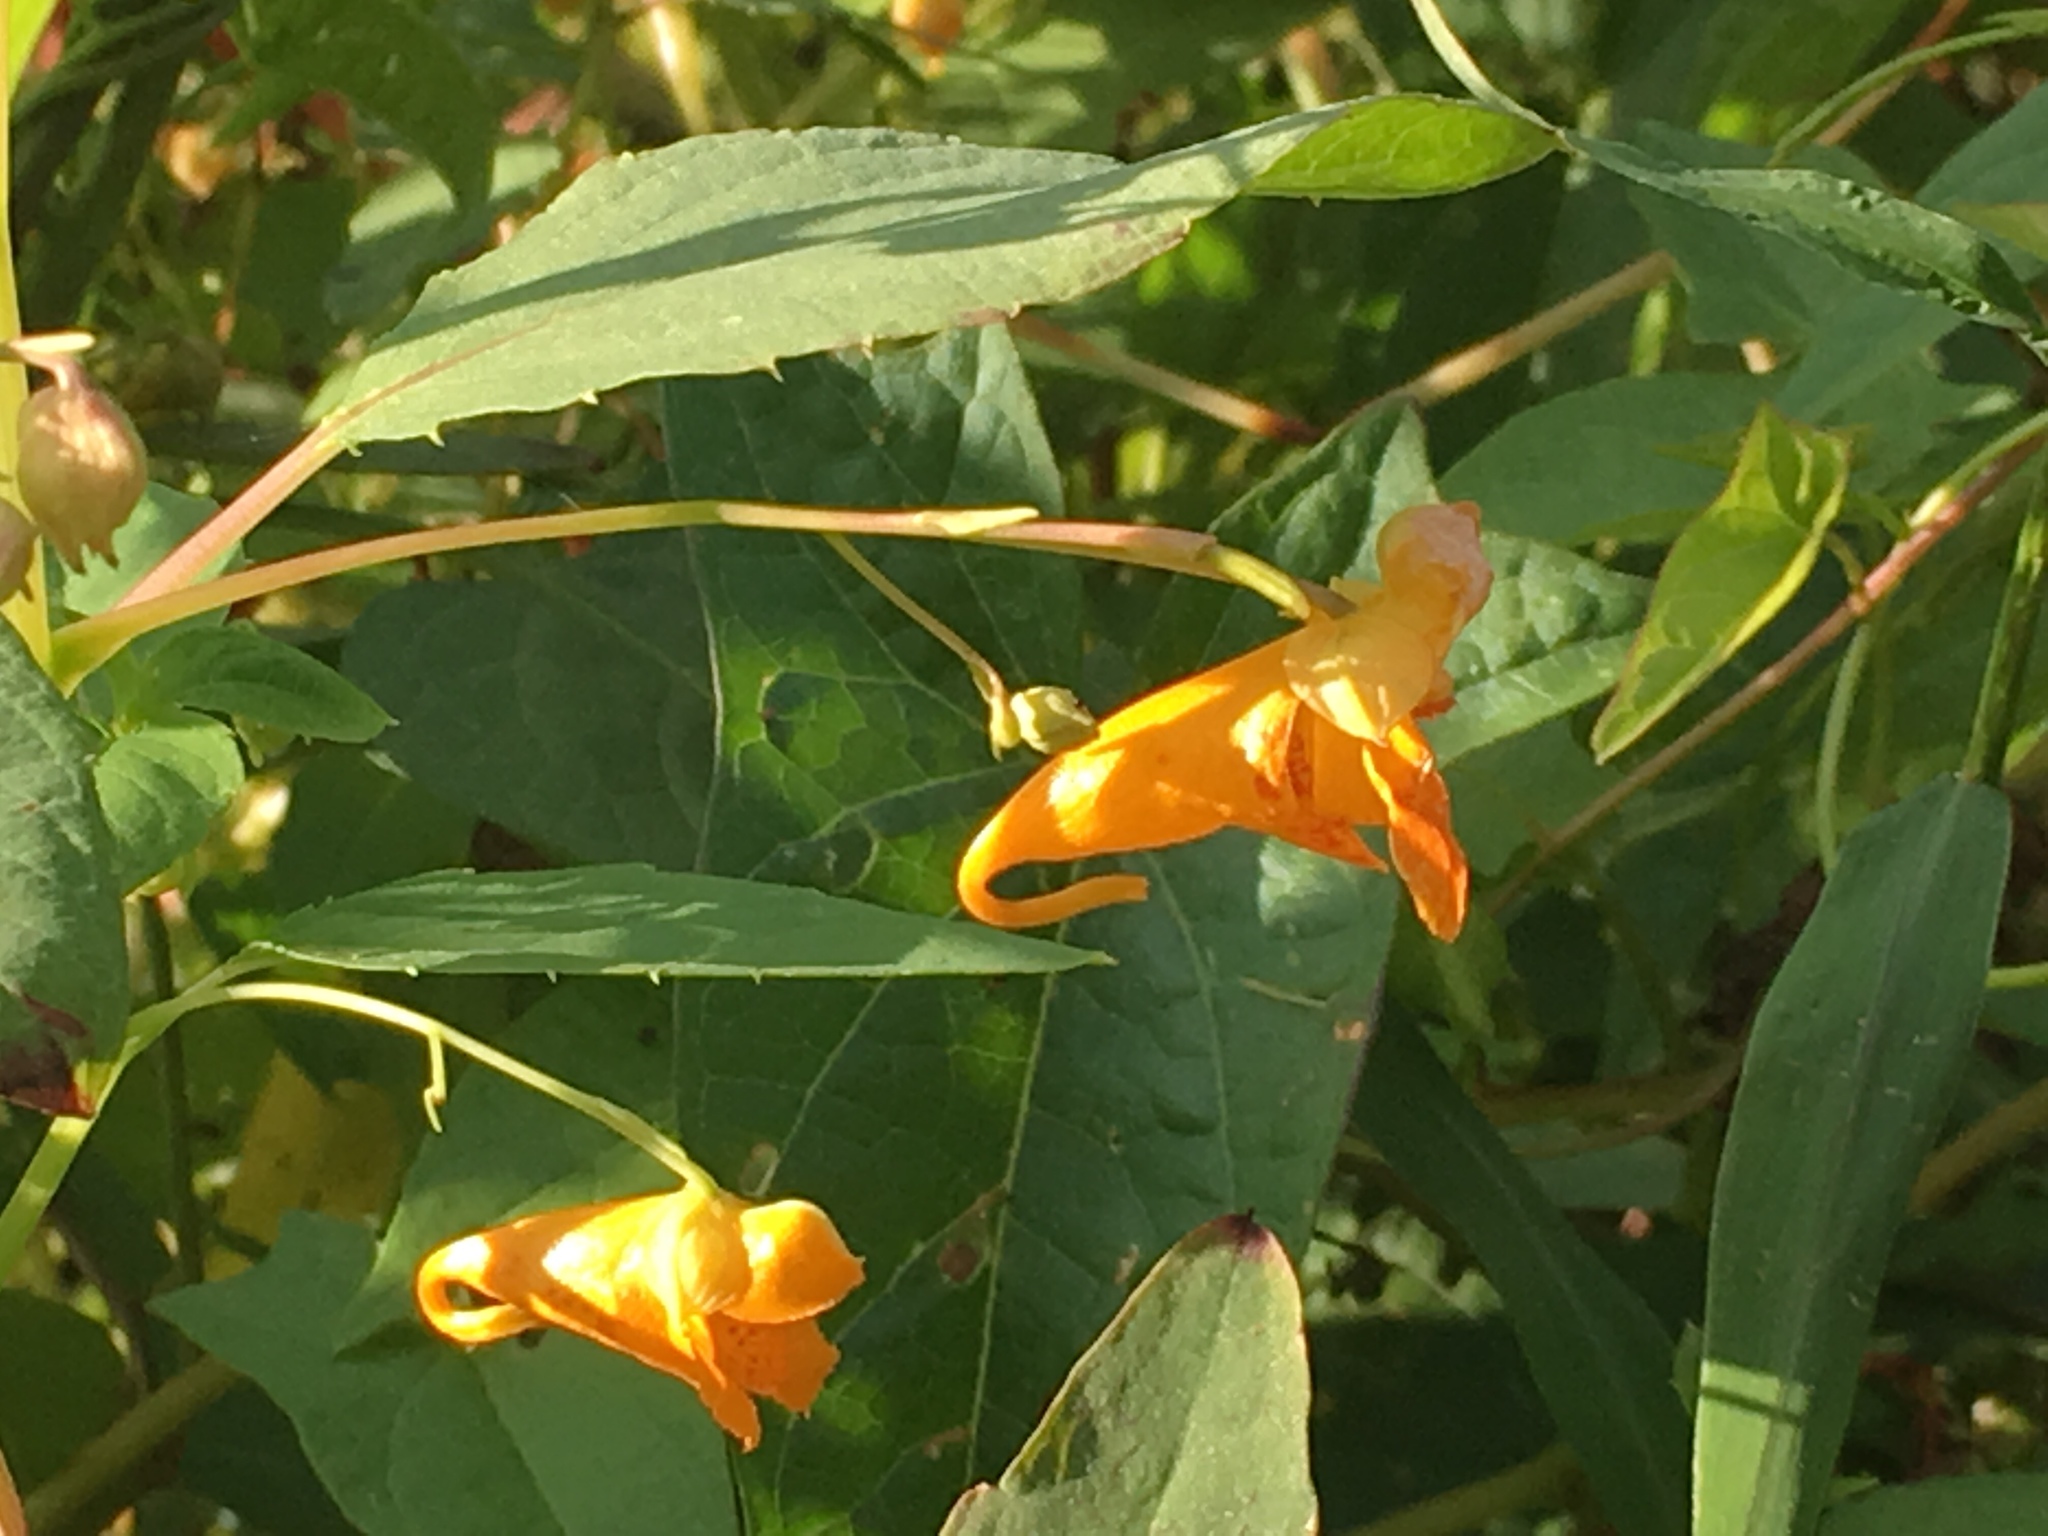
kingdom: Plantae
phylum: Tracheophyta
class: Magnoliopsida
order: Ericales
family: Balsaminaceae
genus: Impatiens
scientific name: Impatiens capensis
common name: Orange balsam
